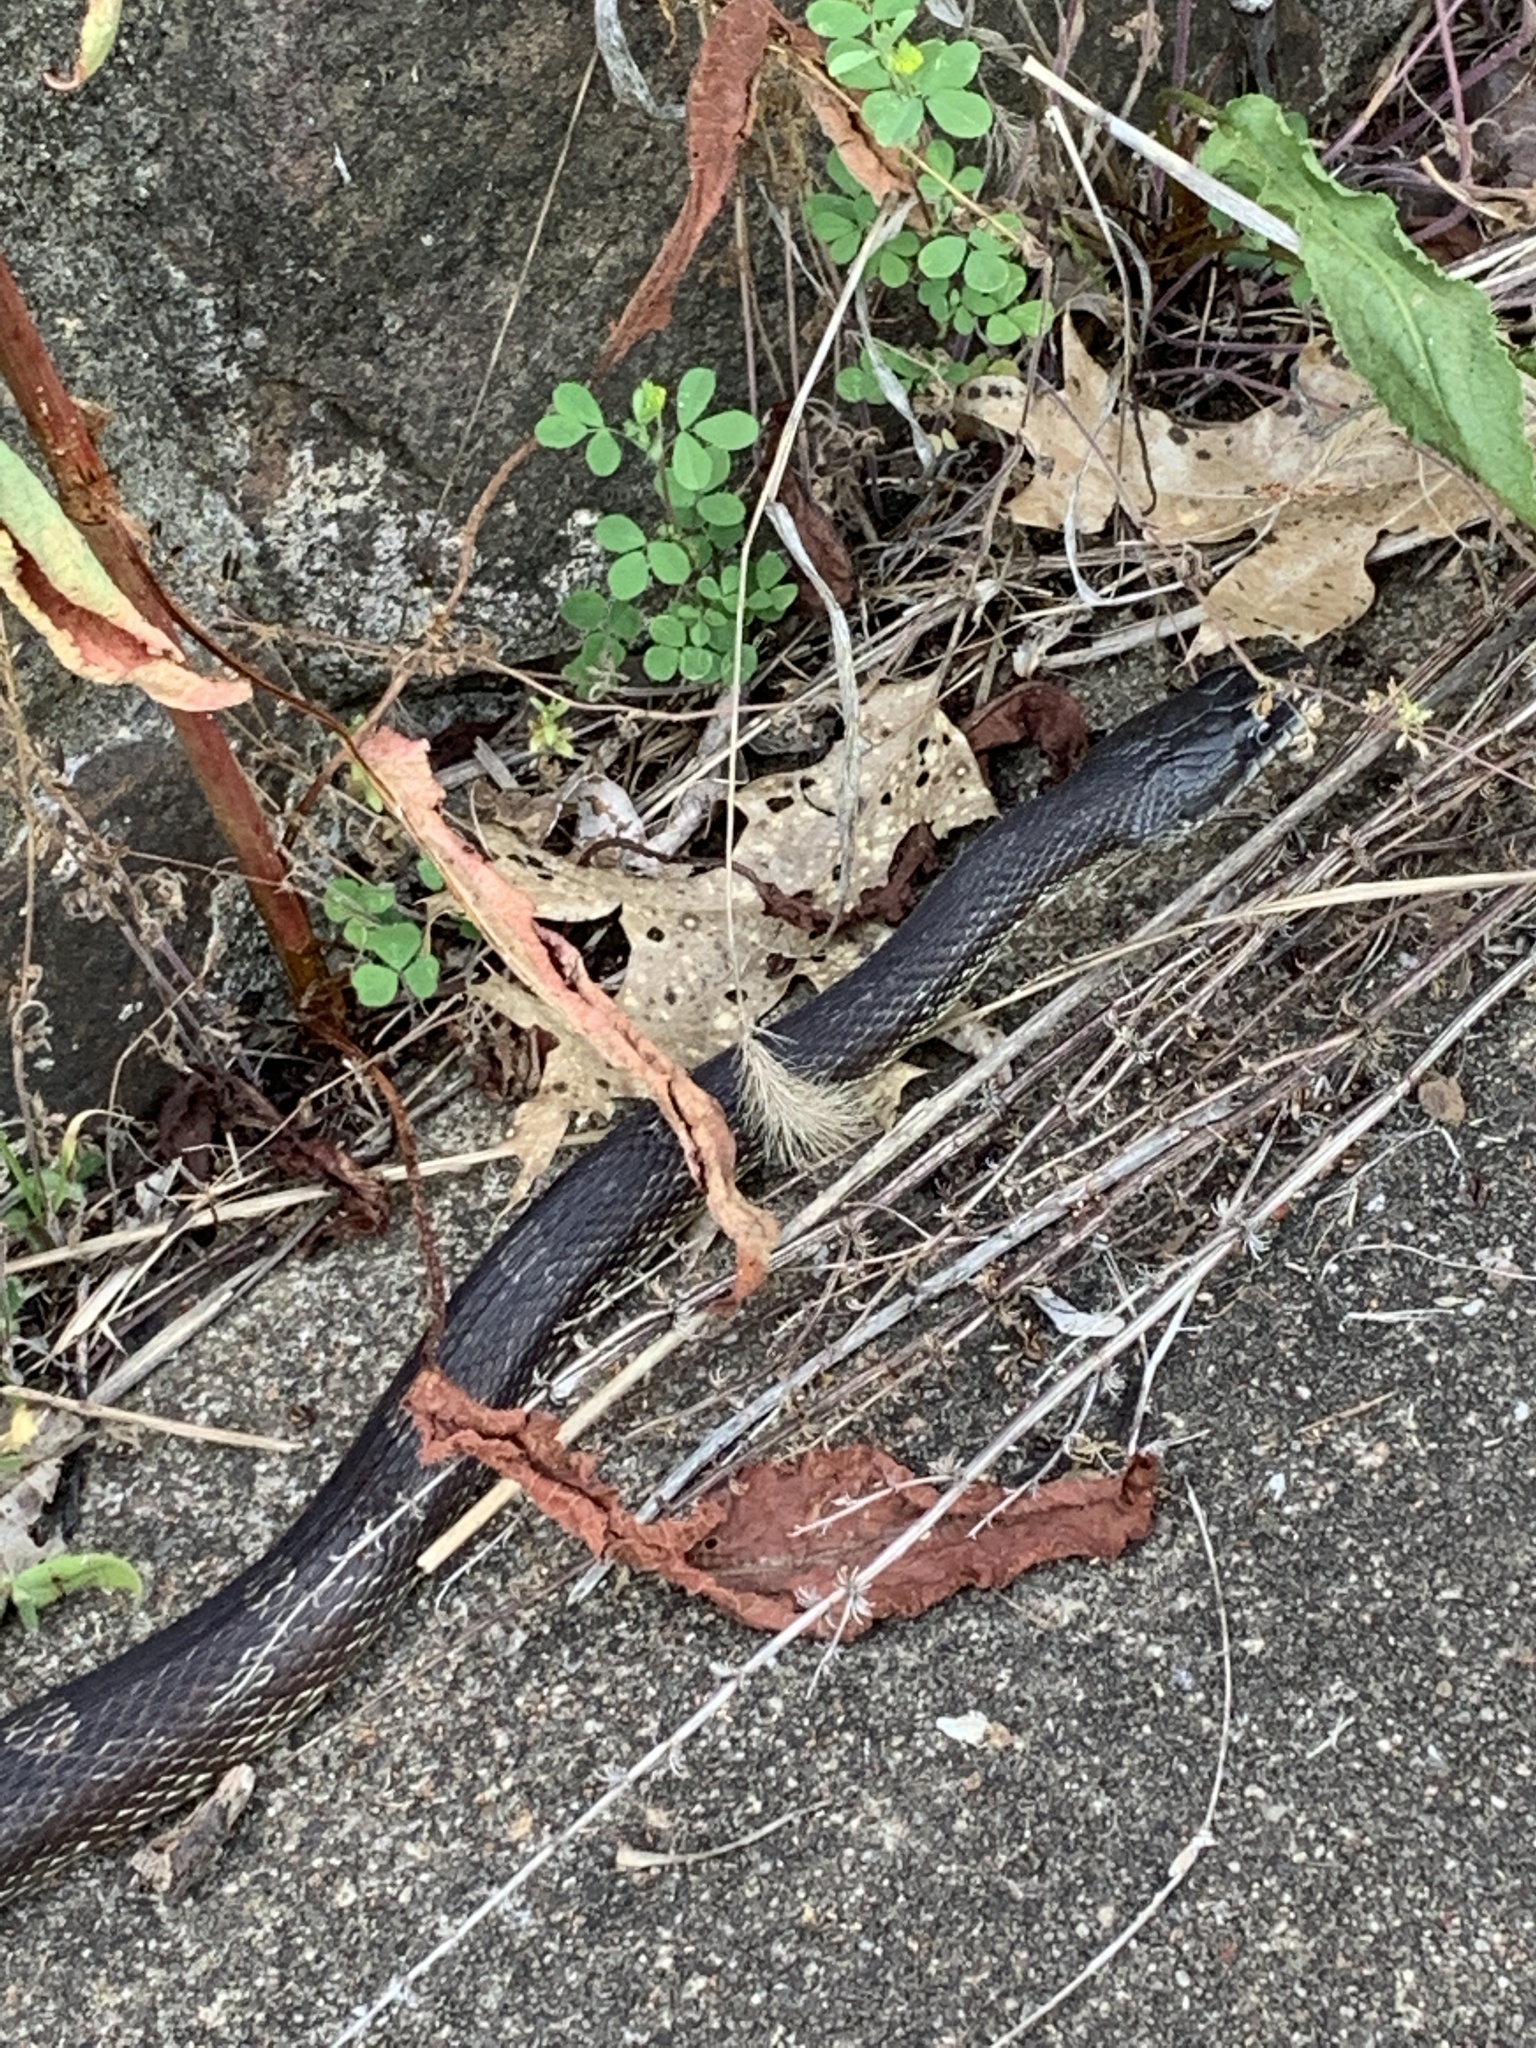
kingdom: Animalia
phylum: Chordata
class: Squamata
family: Colubridae
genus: Pantherophis
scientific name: Pantherophis spiloides
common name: Gray rat snake
